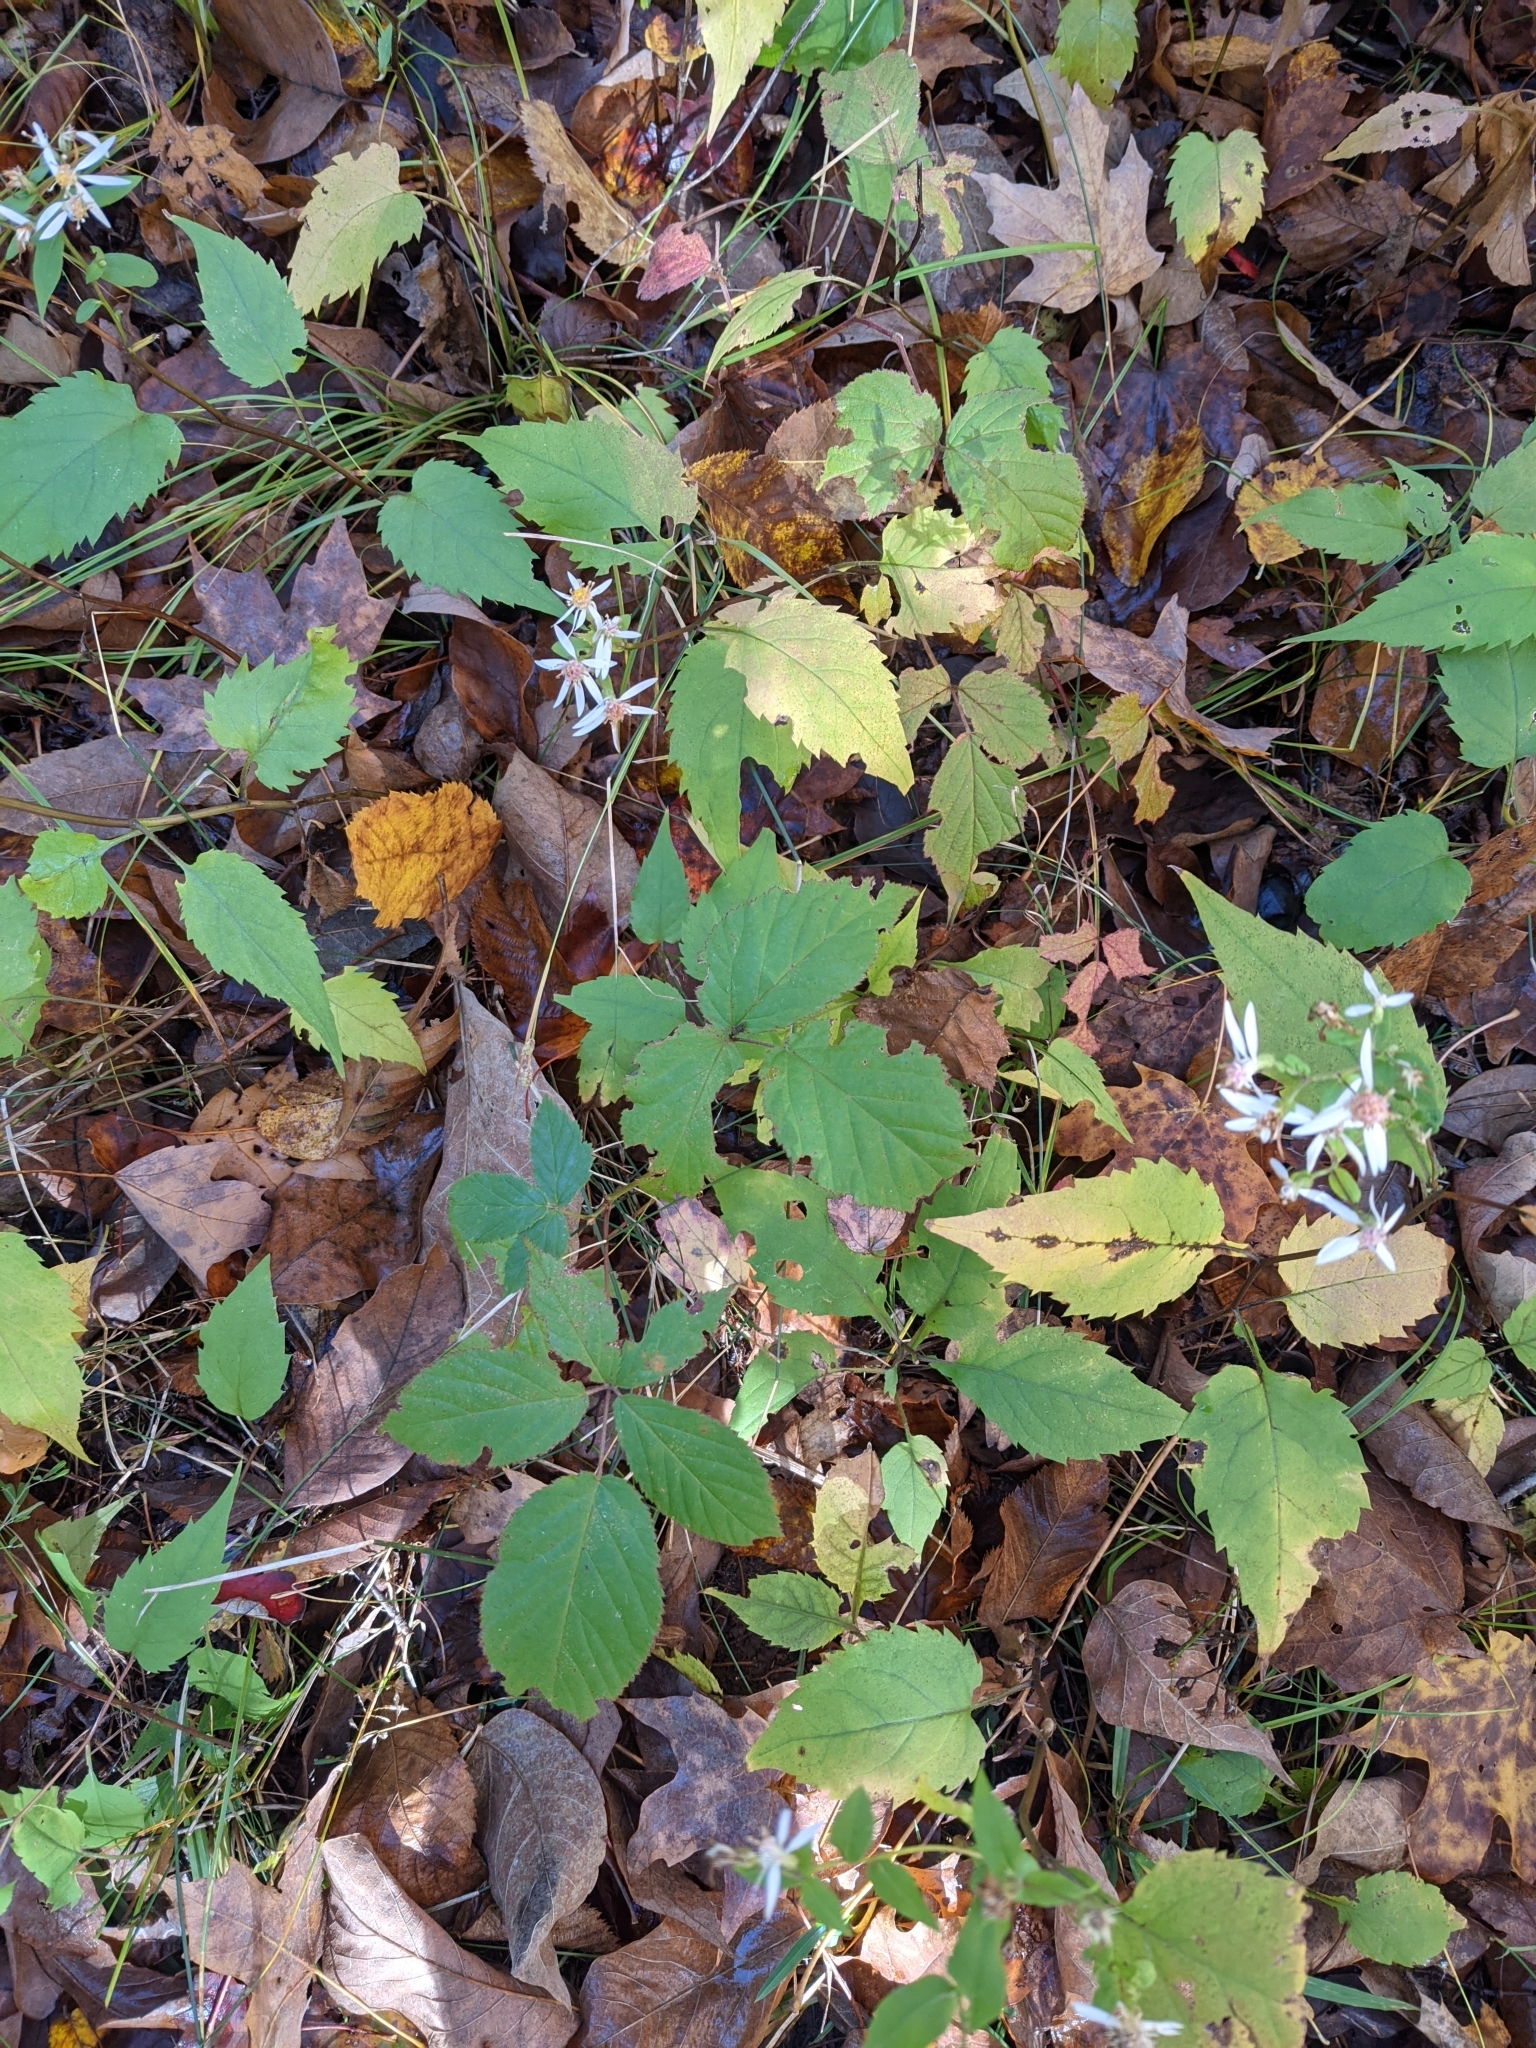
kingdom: Plantae
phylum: Tracheophyta
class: Magnoliopsida
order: Asterales
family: Asteraceae
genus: Eurybia
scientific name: Eurybia divaricata
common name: White wood aster
